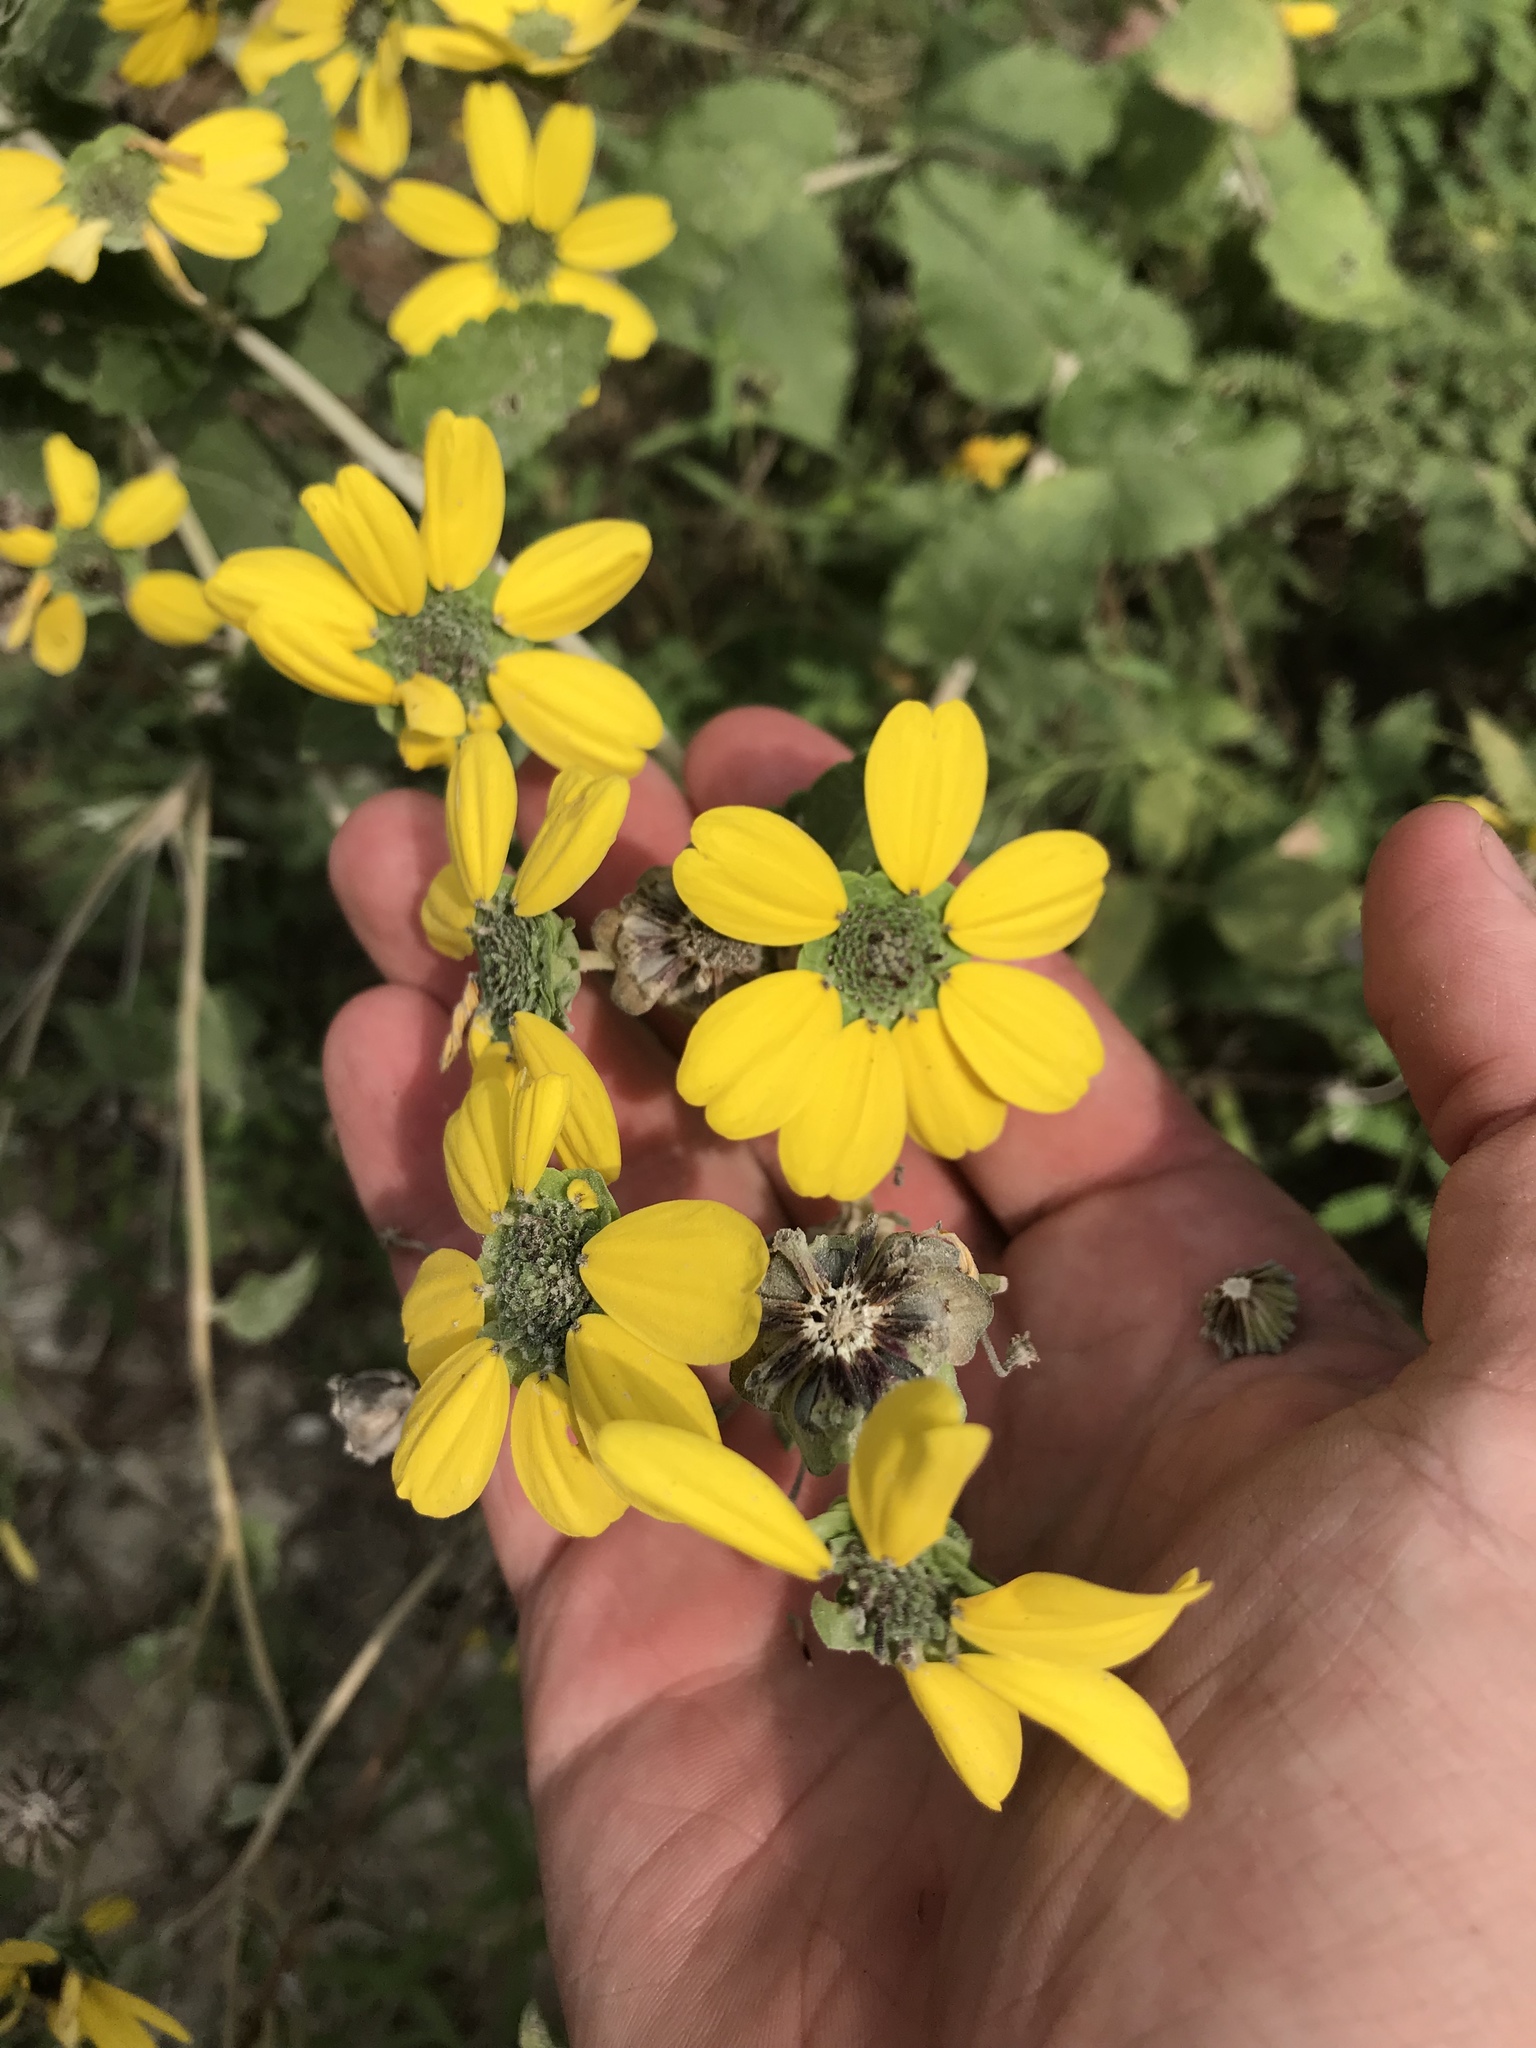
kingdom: Plantae
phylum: Tracheophyta
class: Magnoliopsida
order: Asterales
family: Asteraceae
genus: Berlandiera
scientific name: Berlandiera pumila
